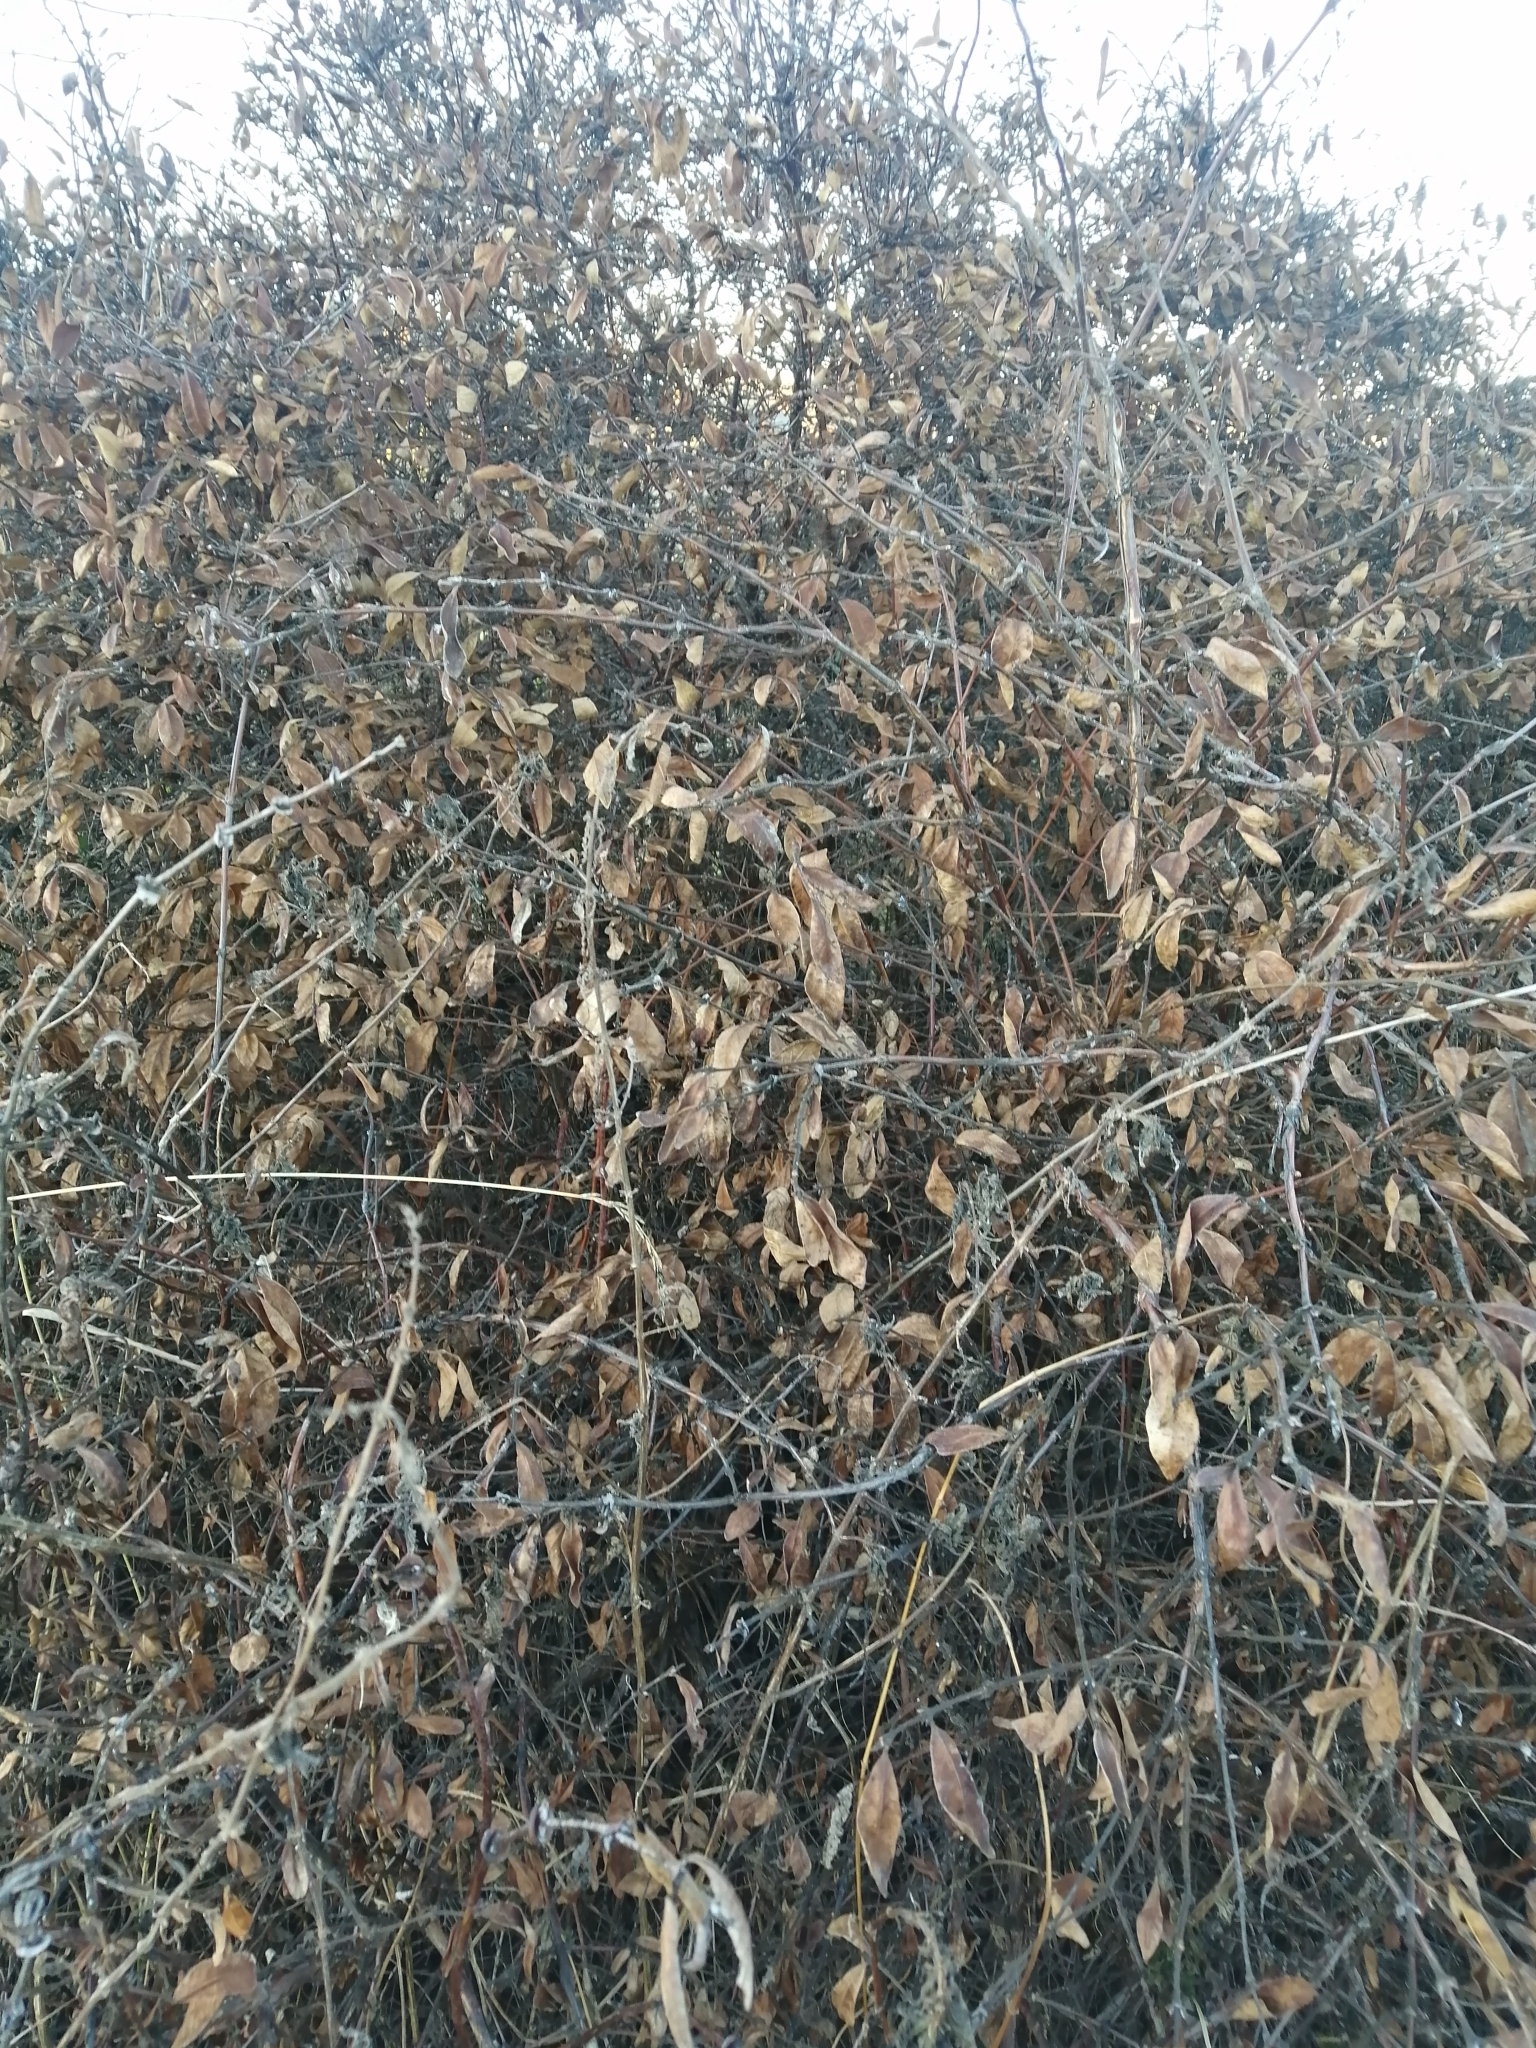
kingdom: Plantae
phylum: Tracheophyta
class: Magnoliopsida
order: Dipsacales
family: Caprifoliaceae
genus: Lonicera
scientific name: Lonicera caerulea
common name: Blue honeysuckle
